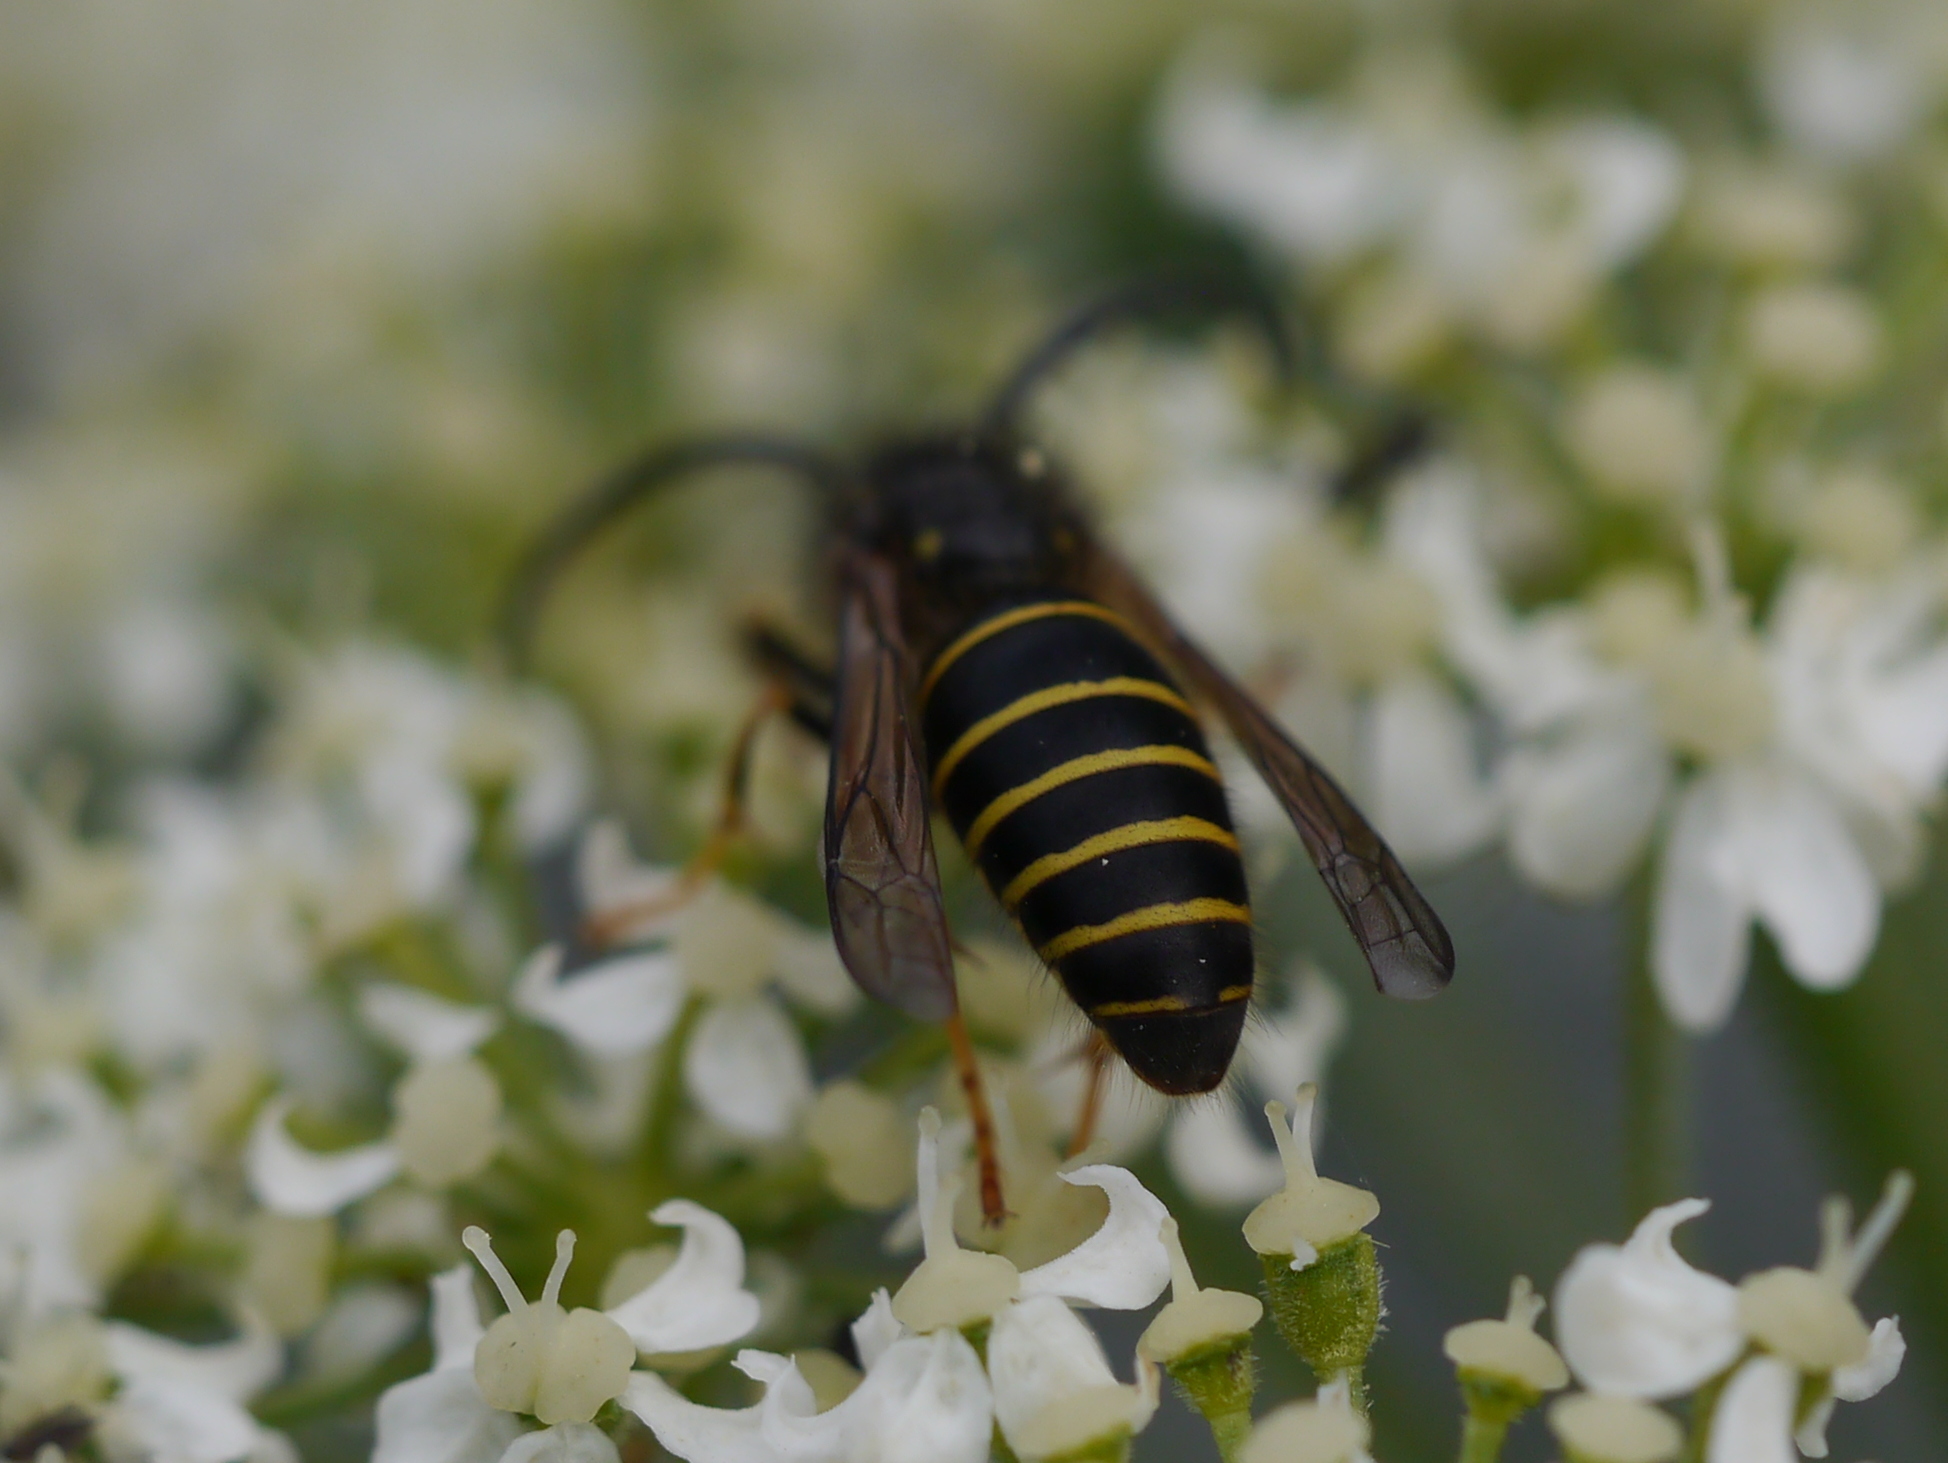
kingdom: Animalia
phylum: Arthropoda
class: Insecta
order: Hymenoptera
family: Vespidae
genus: Dolichovespula
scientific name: Dolichovespula norvegicoides
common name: Northern aerial yellowjacket
